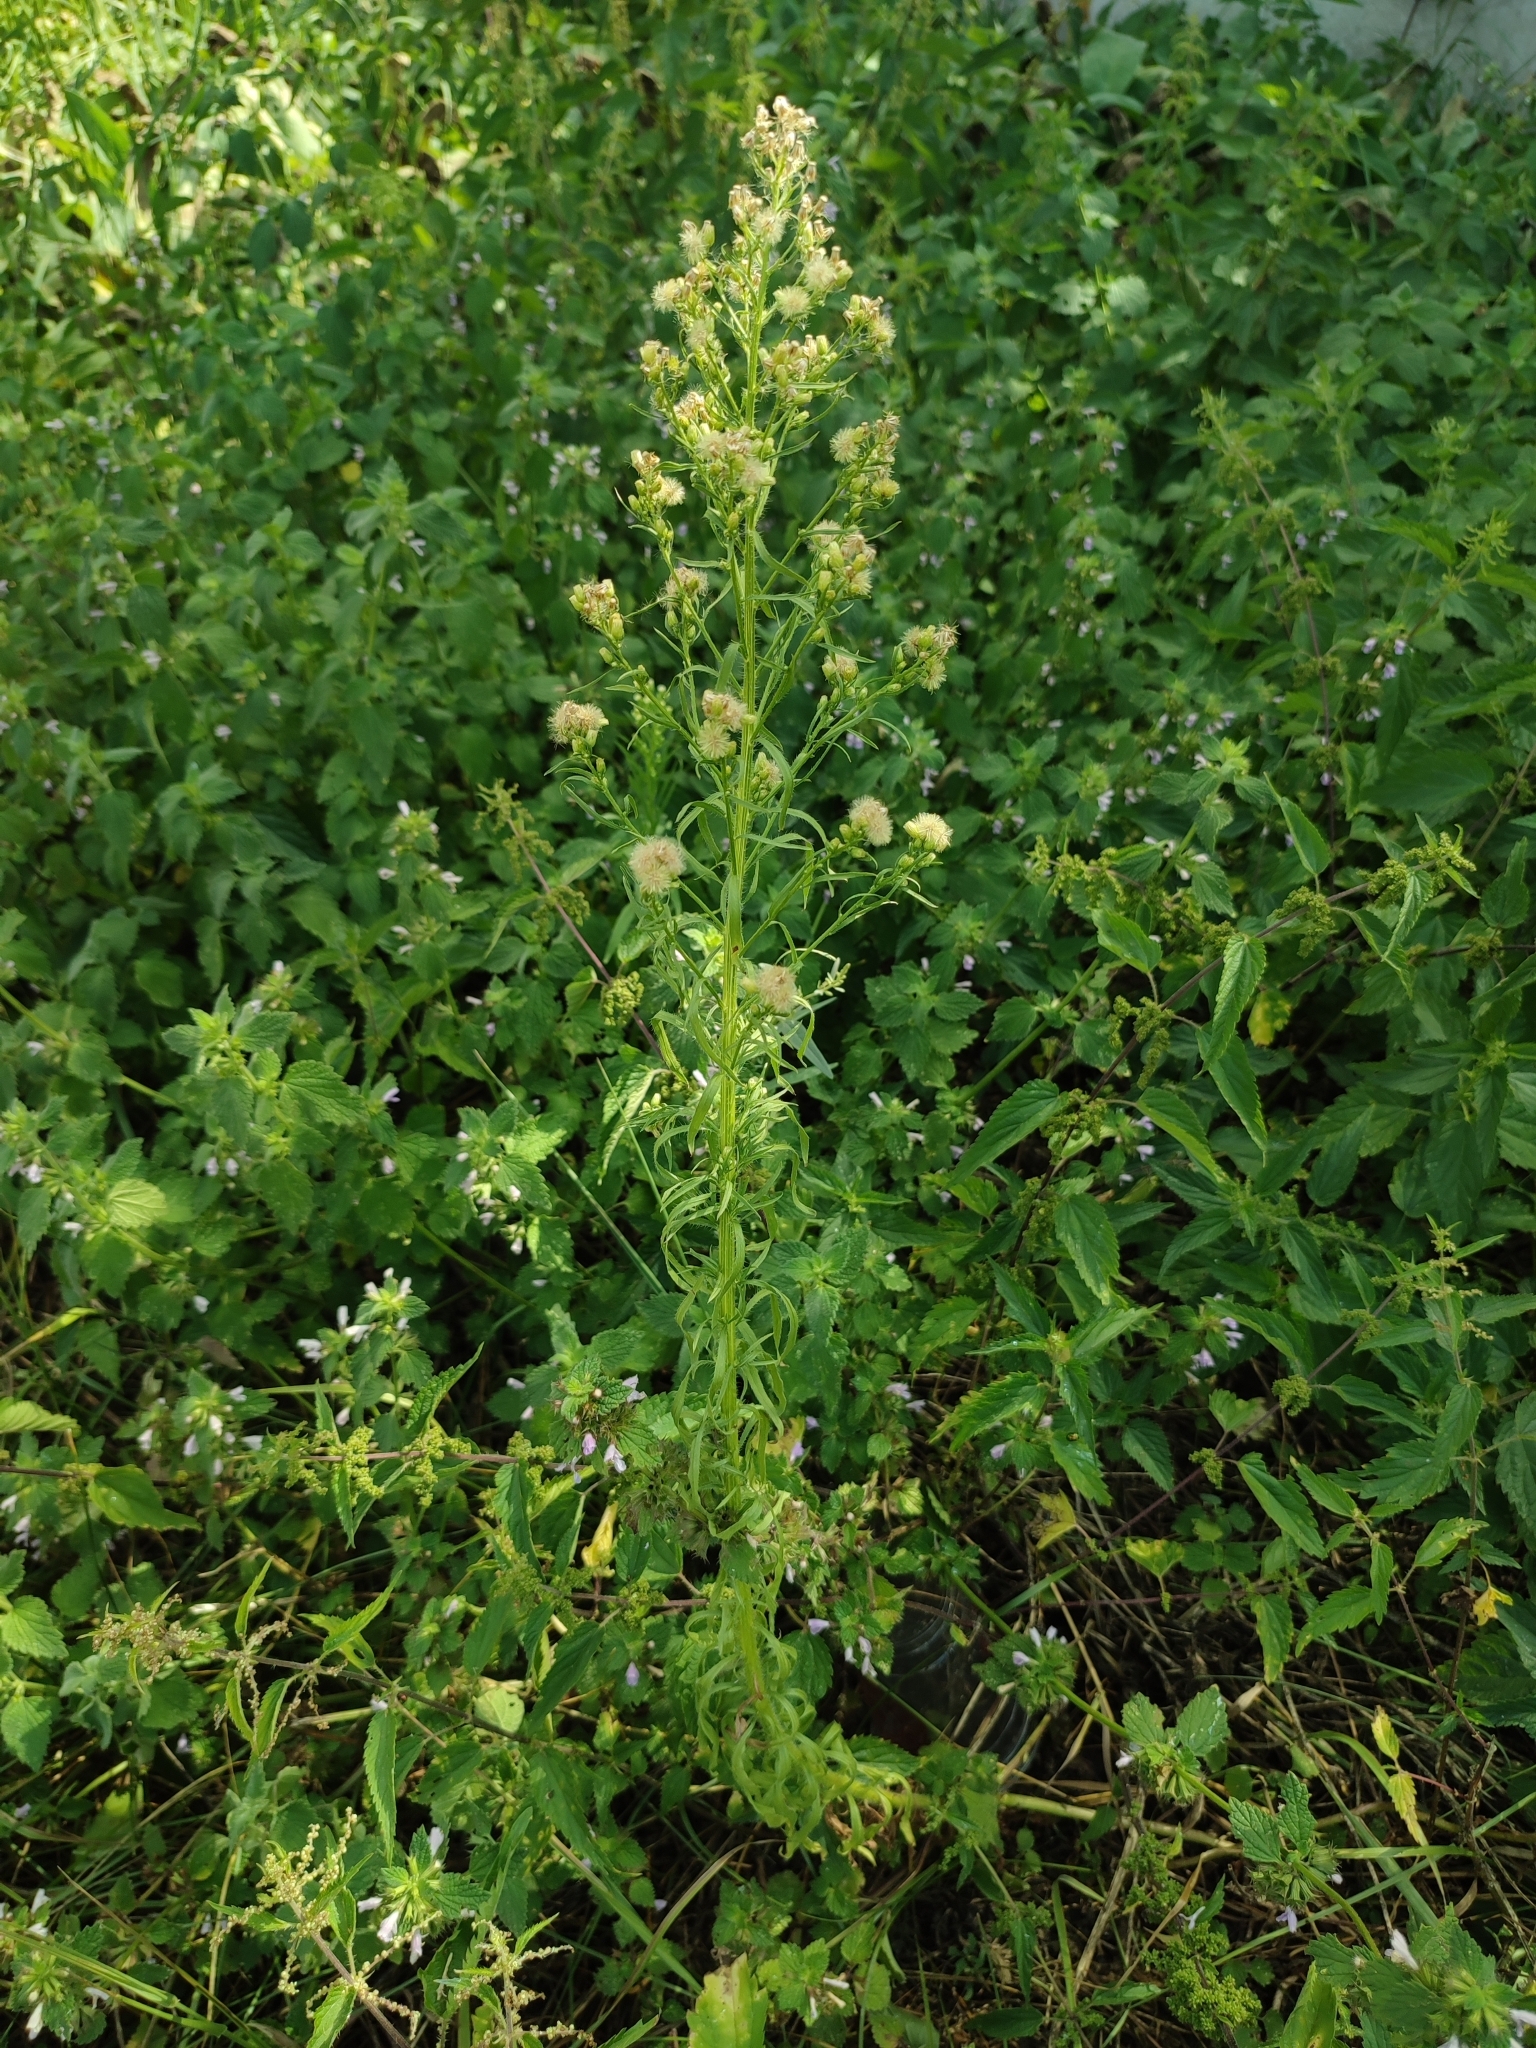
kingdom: Plantae
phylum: Tracheophyta
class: Magnoliopsida
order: Asterales
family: Asteraceae
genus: Erigeron
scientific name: Erigeron canadensis
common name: Canadian fleabane
